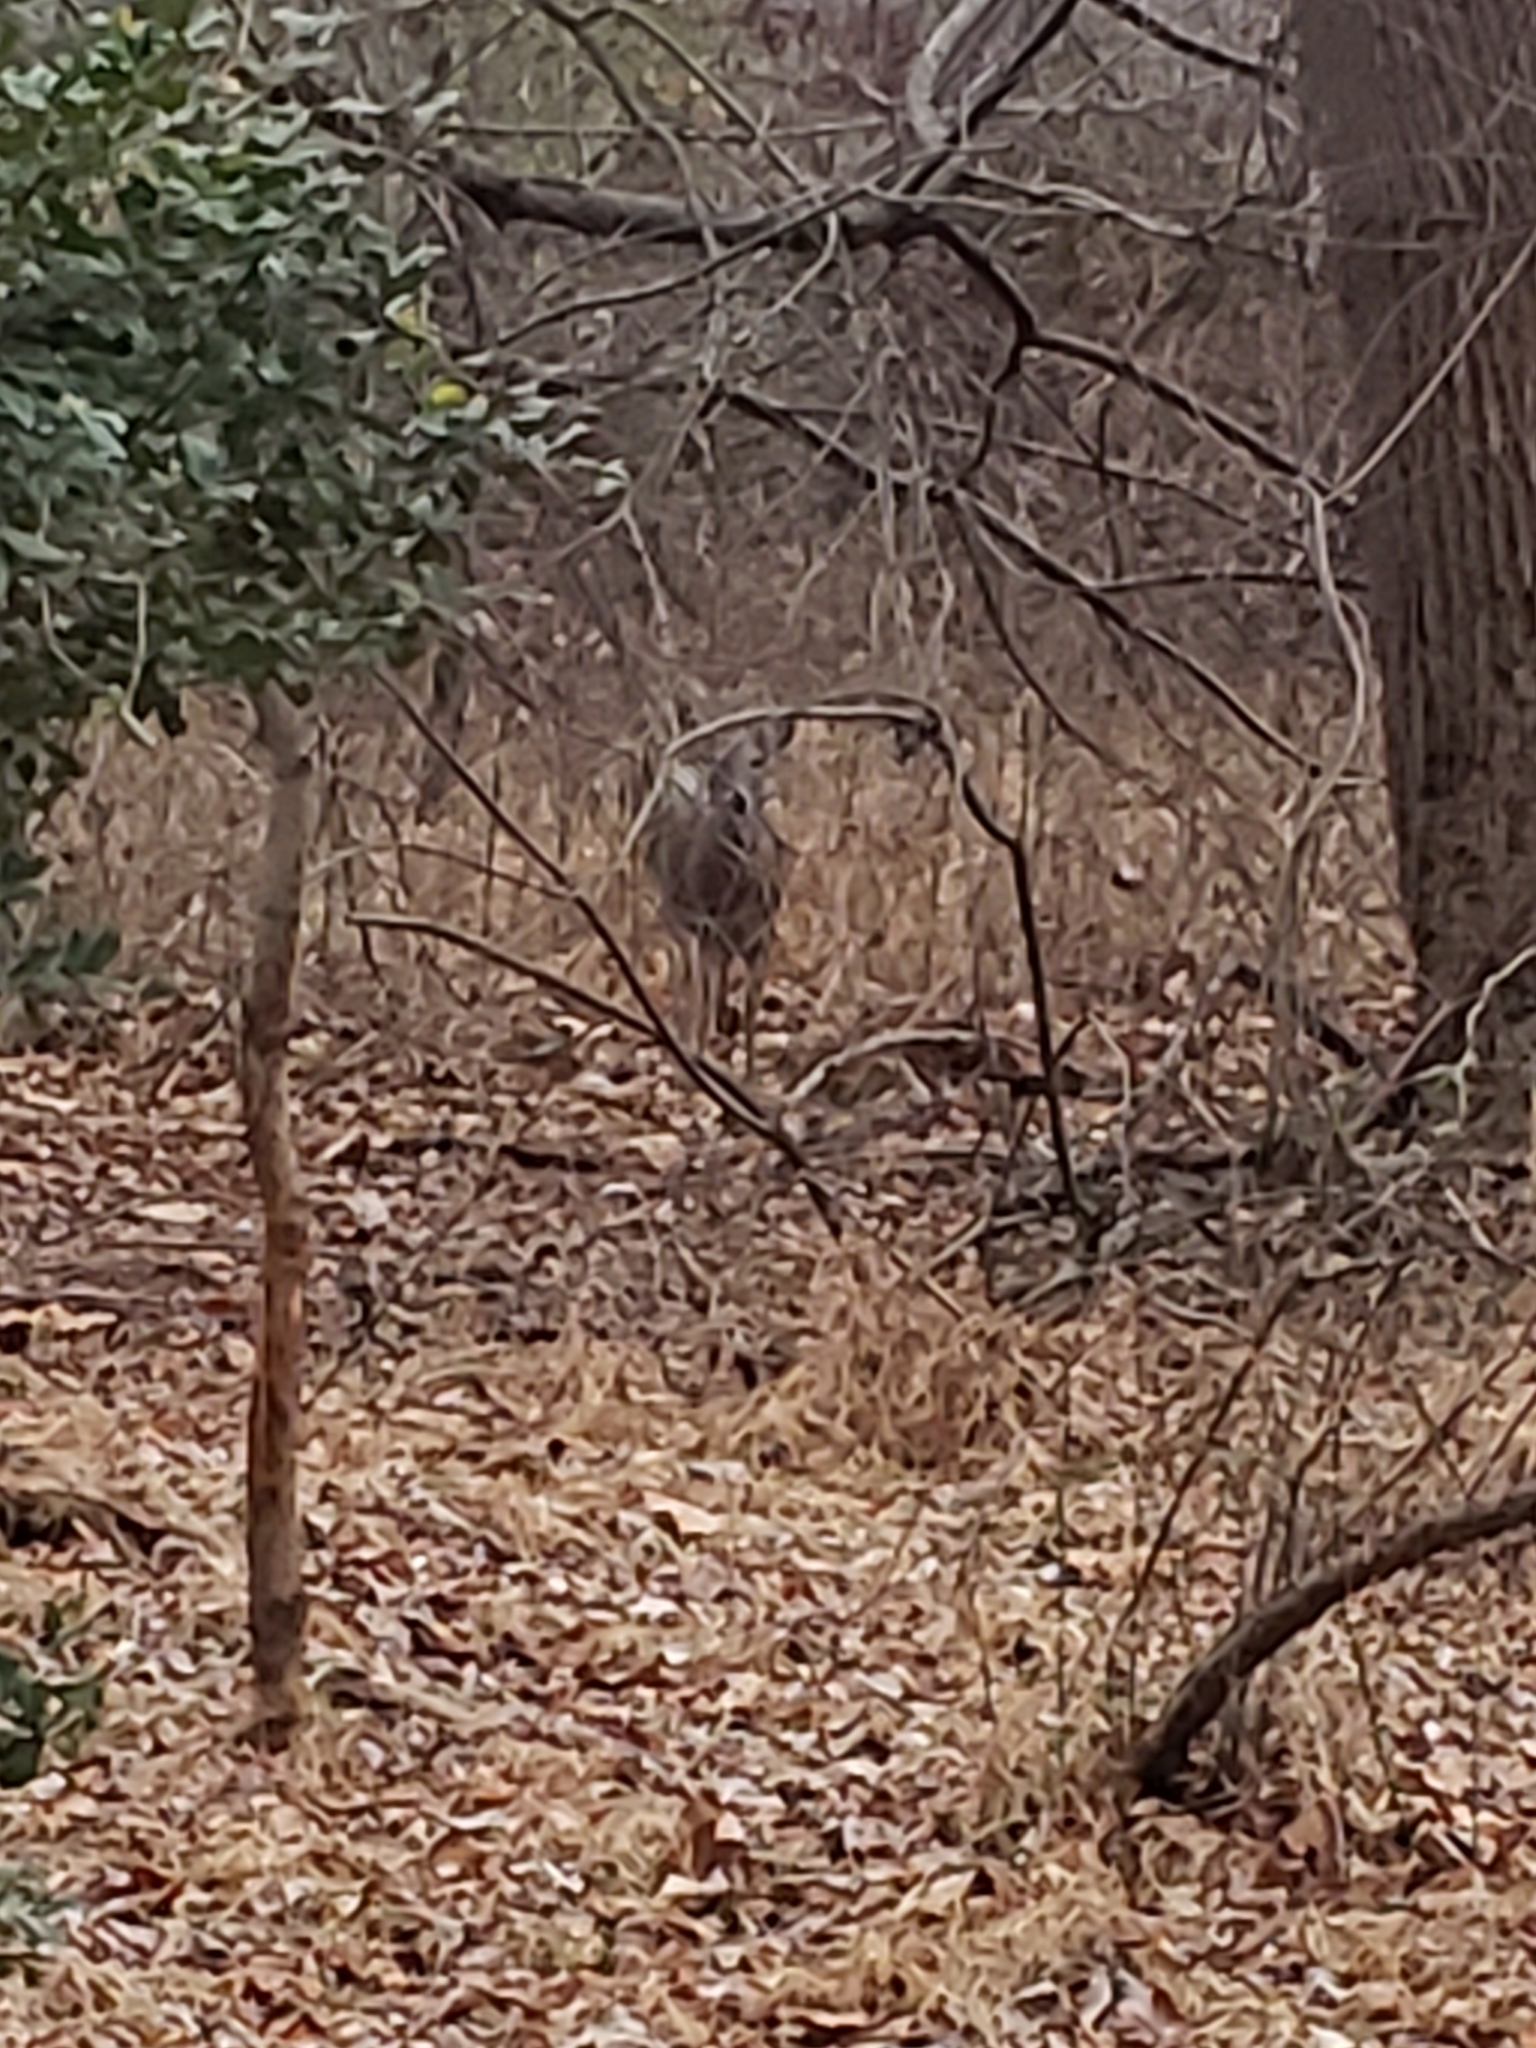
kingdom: Animalia
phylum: Chordata
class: Mammalia
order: Artiodactyla
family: Cervidae
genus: Odocoileus
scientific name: Odocoileus virginianus
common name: White-tailed deer
